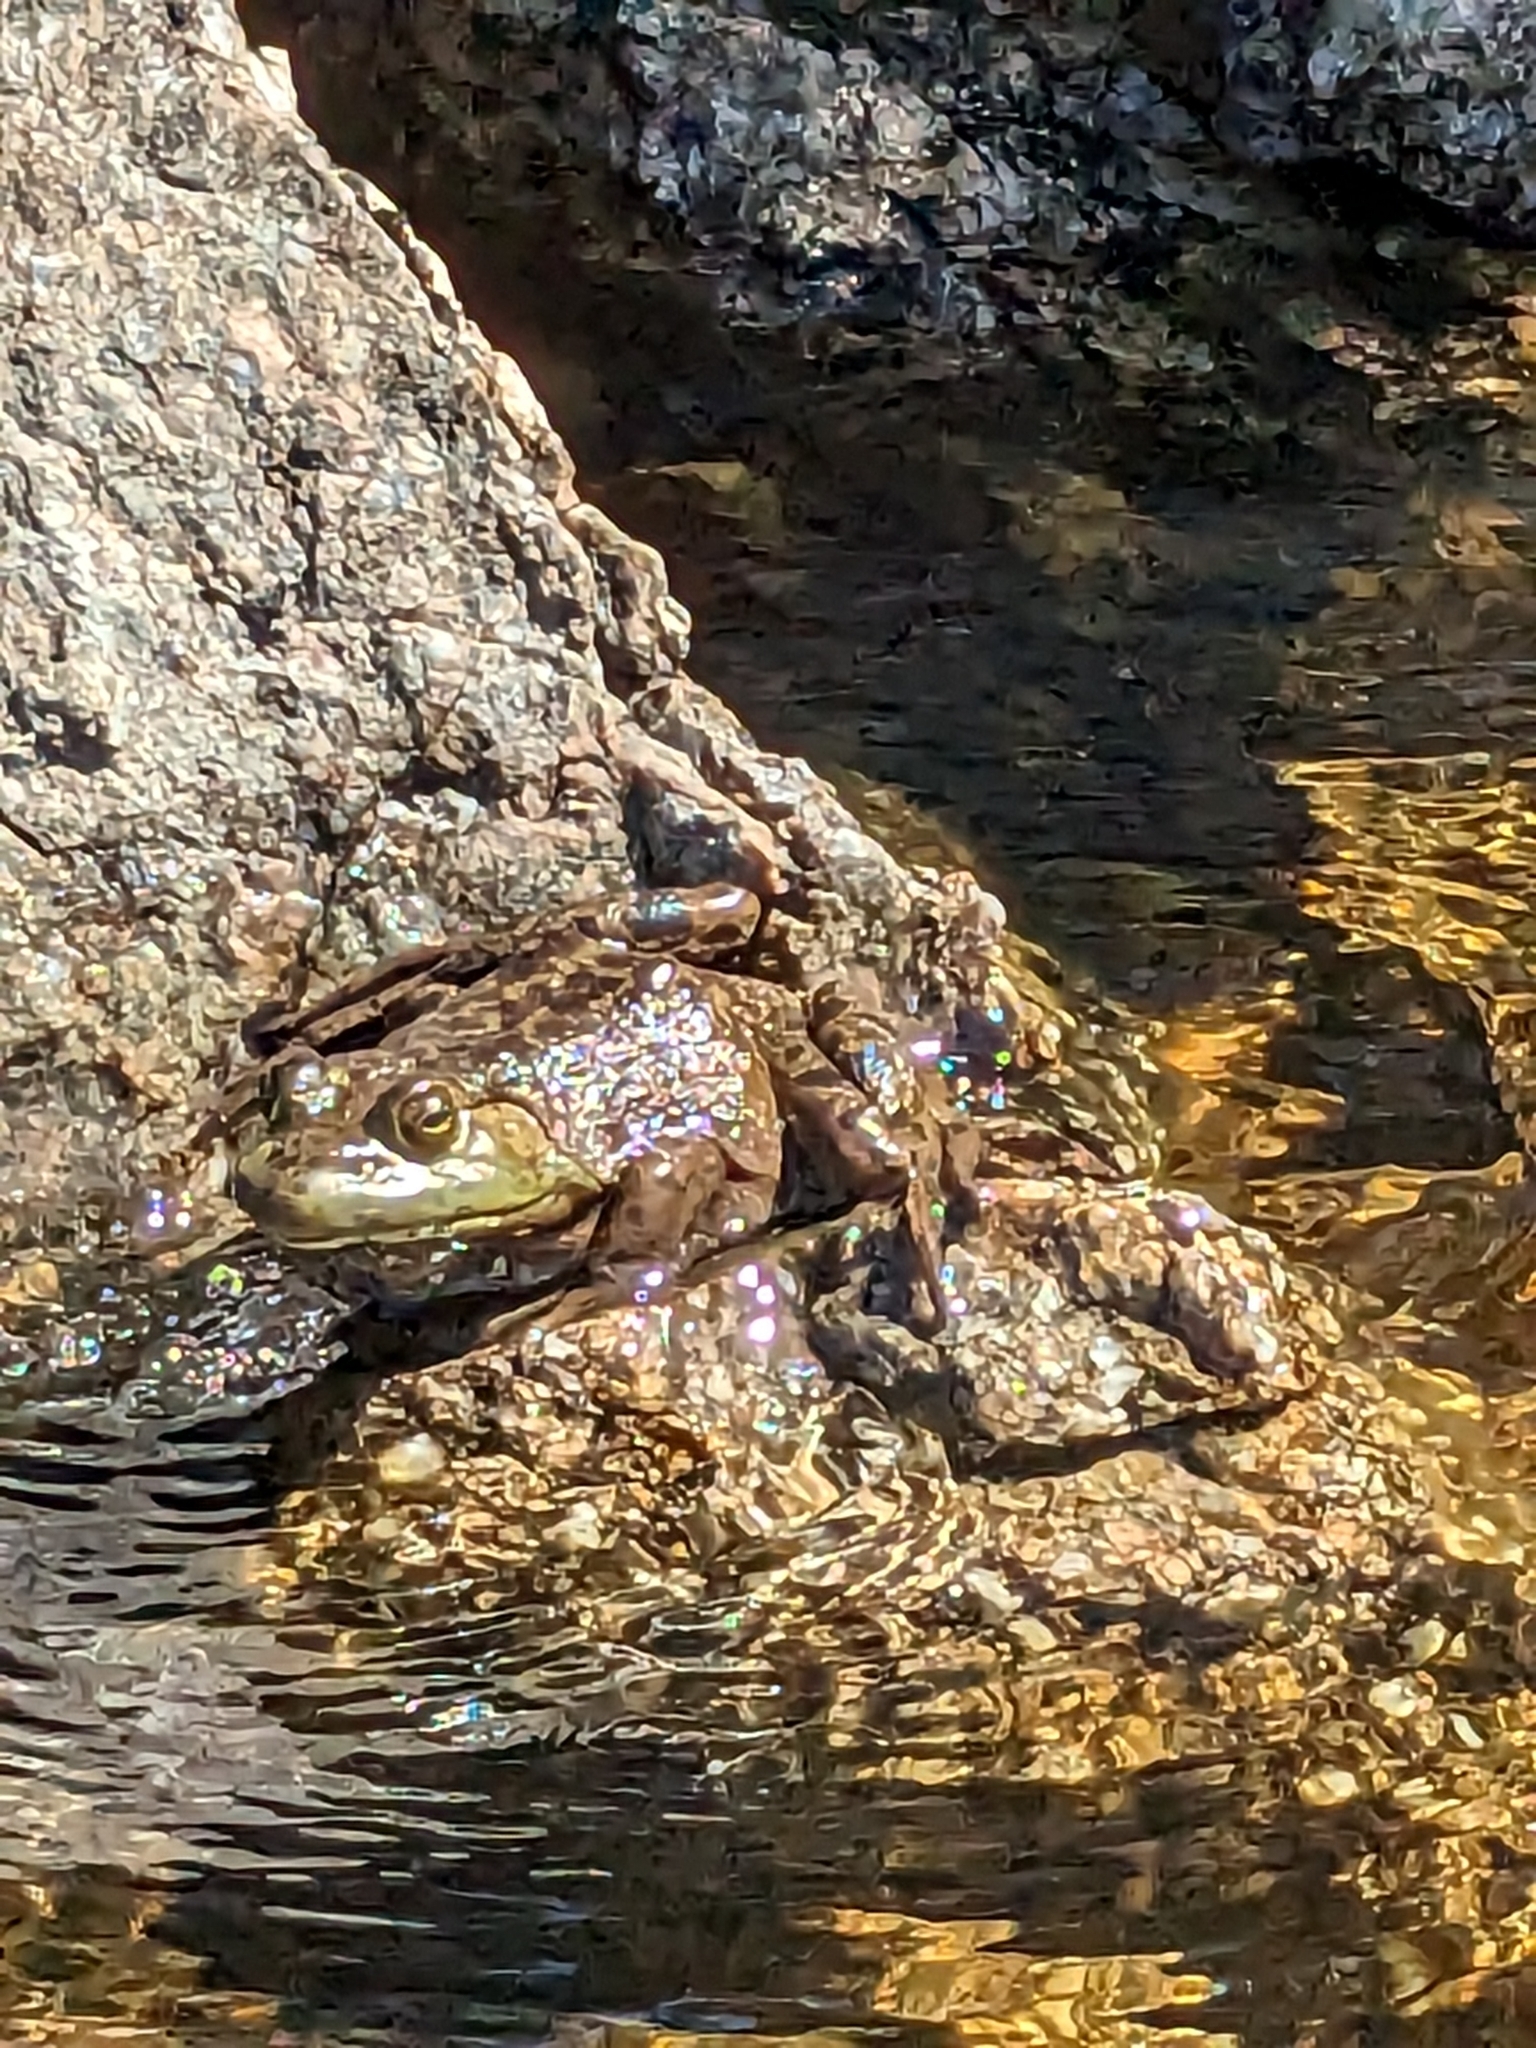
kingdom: Animalia
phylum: Chordata
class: Amphibia
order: Anura
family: Ranidae
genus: Lithobates
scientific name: Lithobates catesbeianus
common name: American bullfrog
